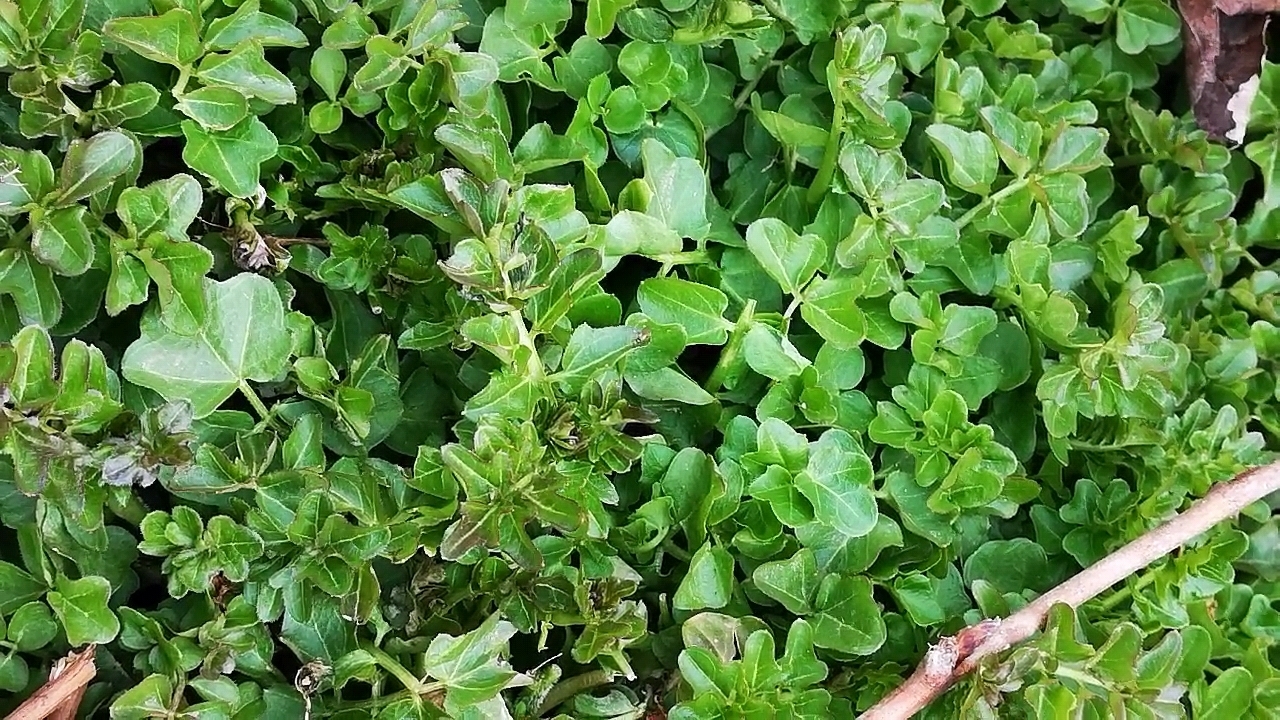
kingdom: Plantae
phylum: Tracheophyta
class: Magnoliopsida
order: Brassicales
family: Brassicaceae
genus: Cardamine
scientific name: Cardamine amara
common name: Large bitter-cress
